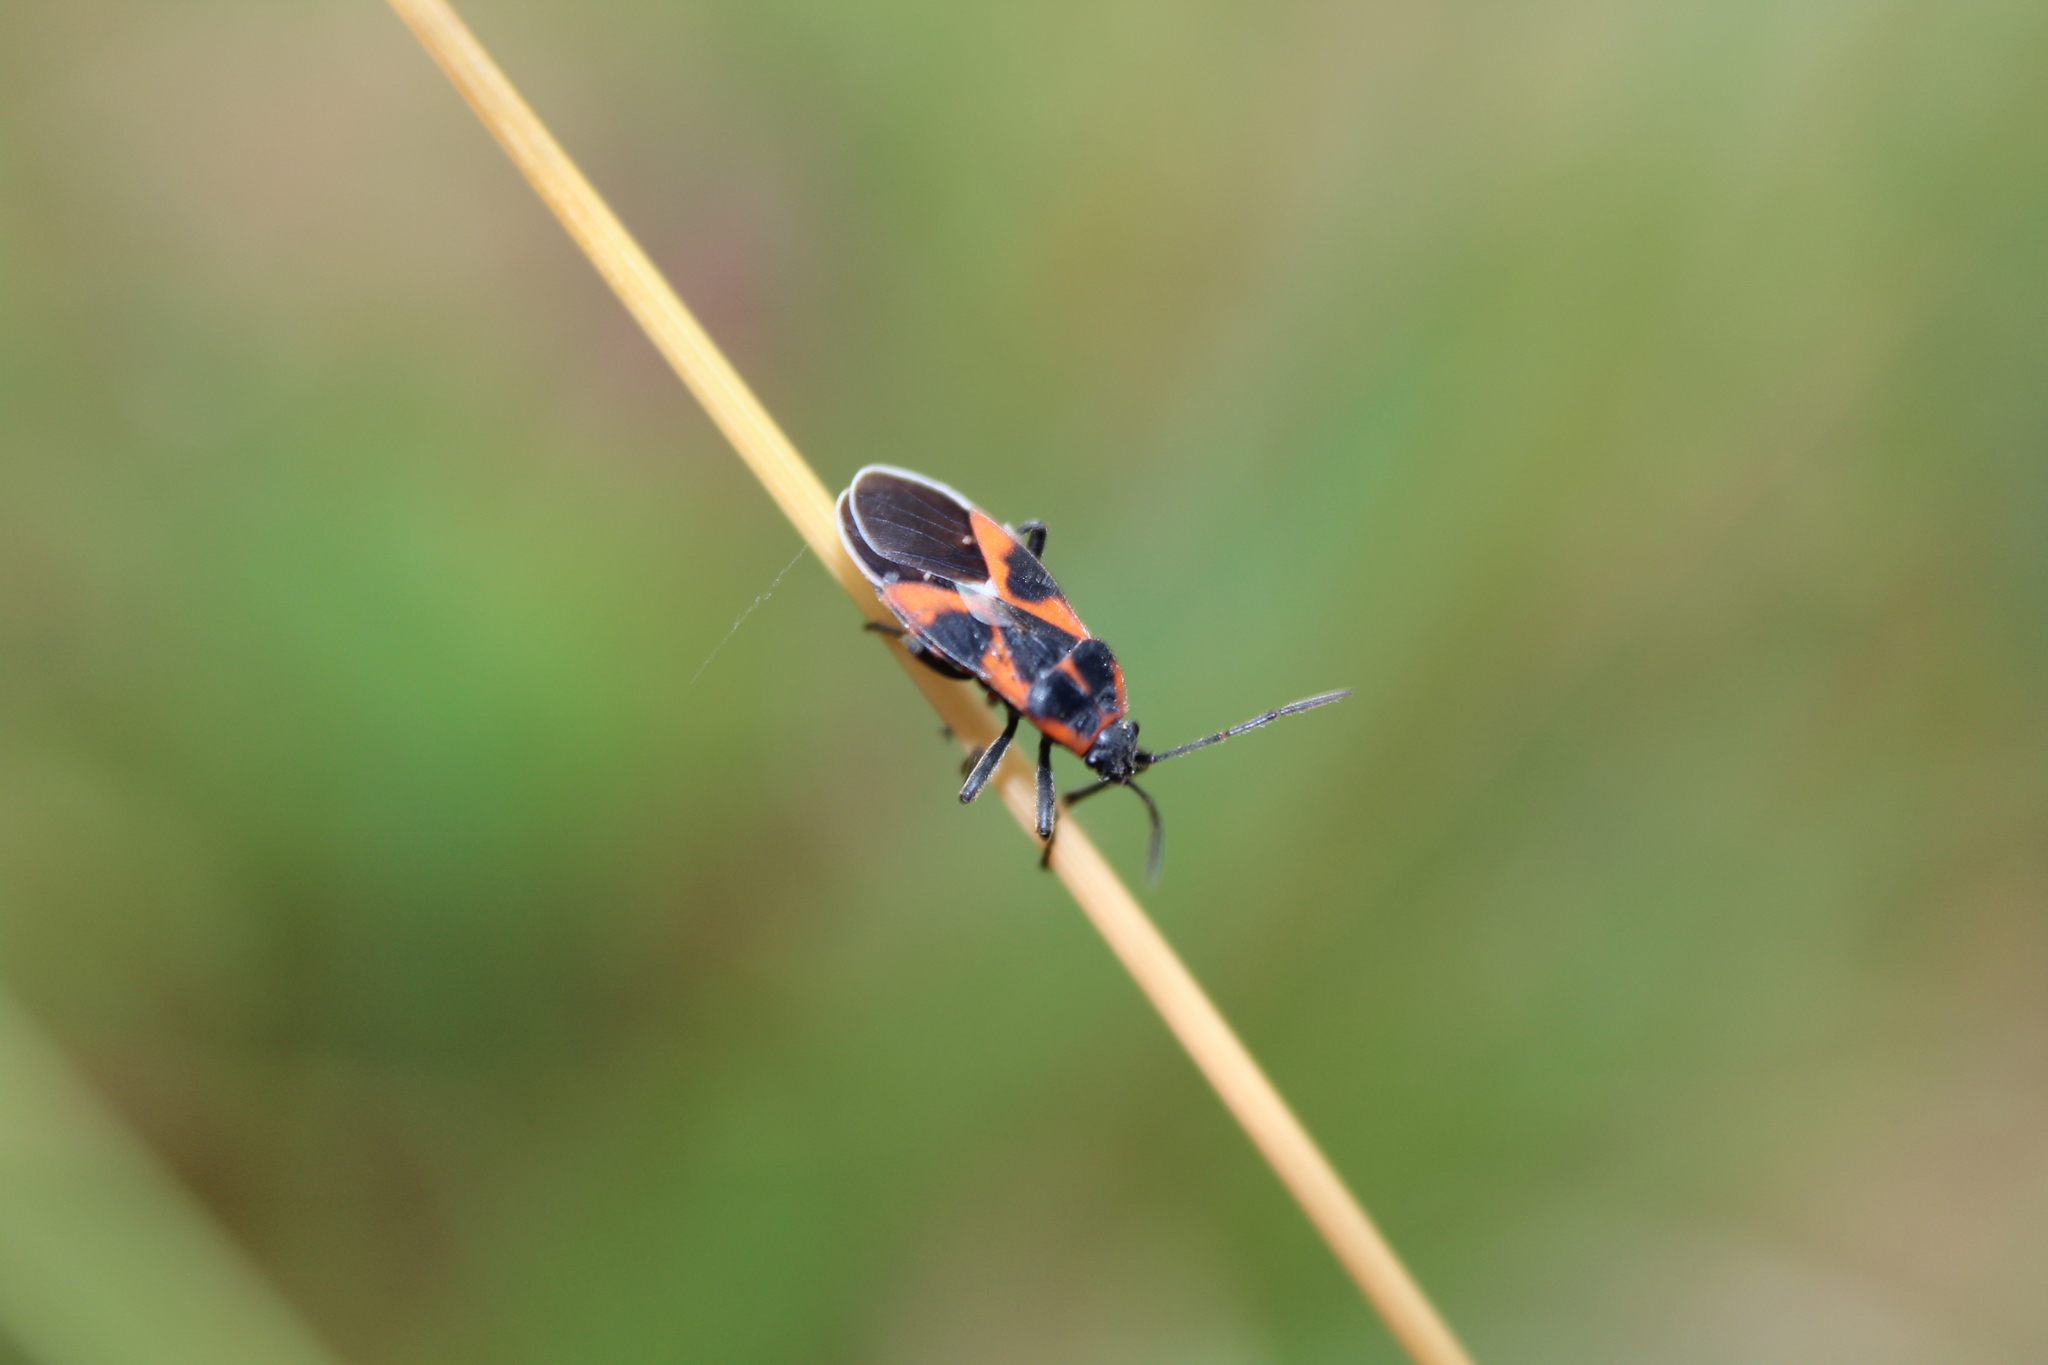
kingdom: Animalia
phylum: Arthropoda
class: Insecta
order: Hemiptera
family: Lygaeidae
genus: Tropidothorax
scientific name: Tropidothorax leucopterus
